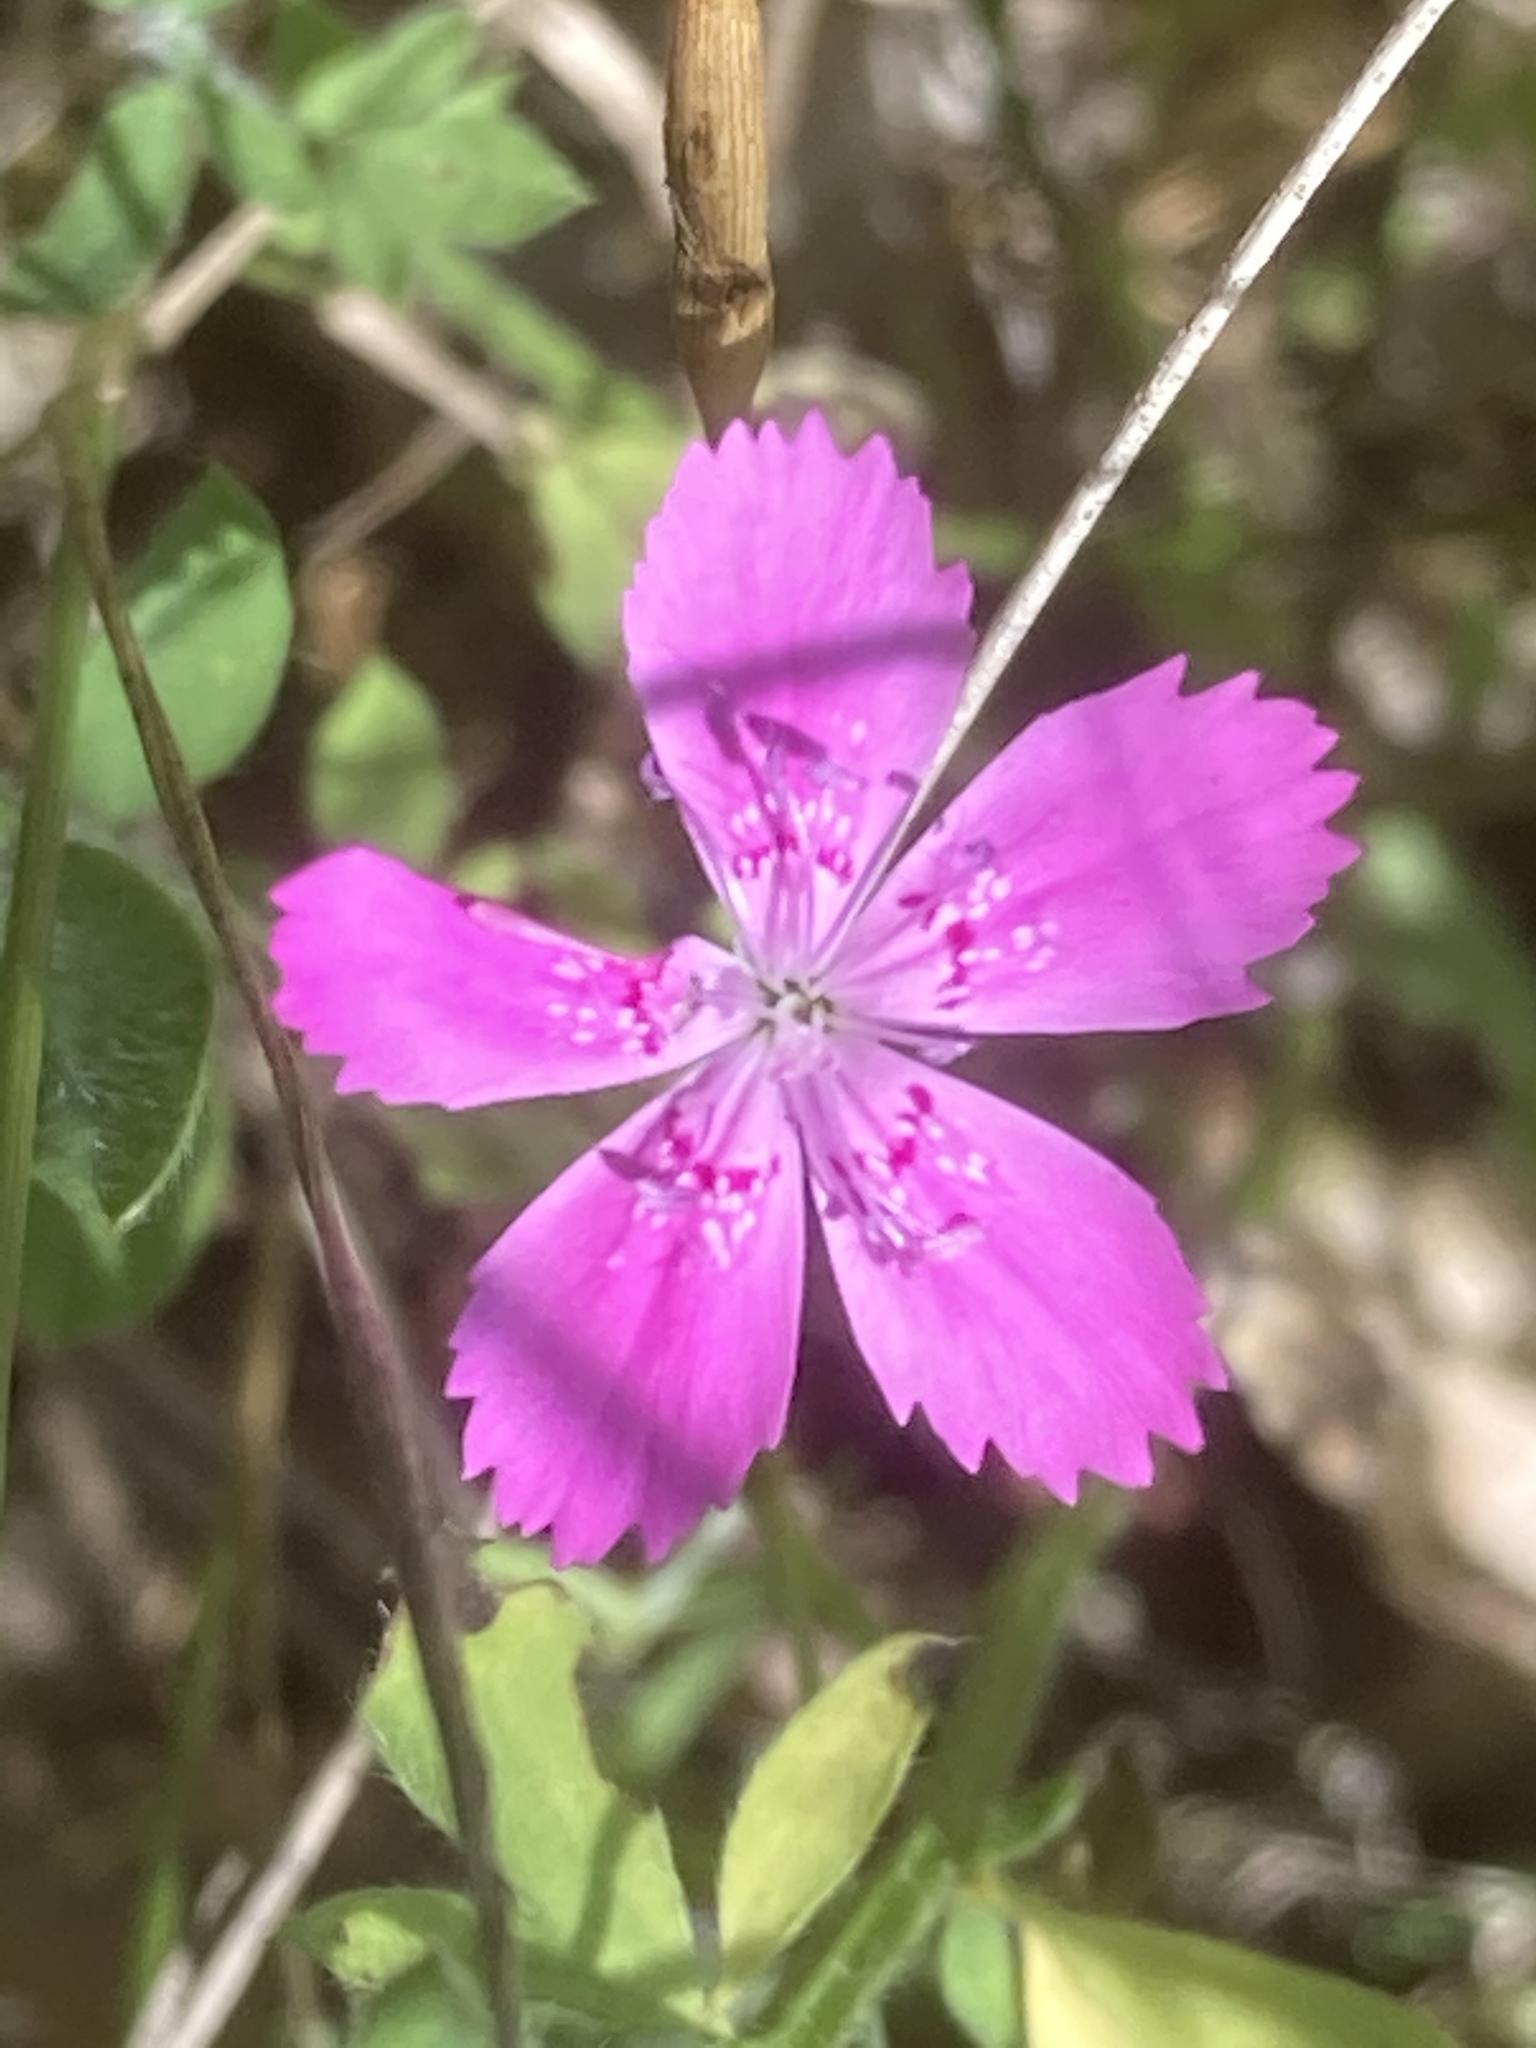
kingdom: Plantae
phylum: Tracheophyta
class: Magnoliopsida
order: Caryophyllales
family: Caryophyllaceae
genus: Dianthus
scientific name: Dianthus deltoides
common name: Maiden pink
